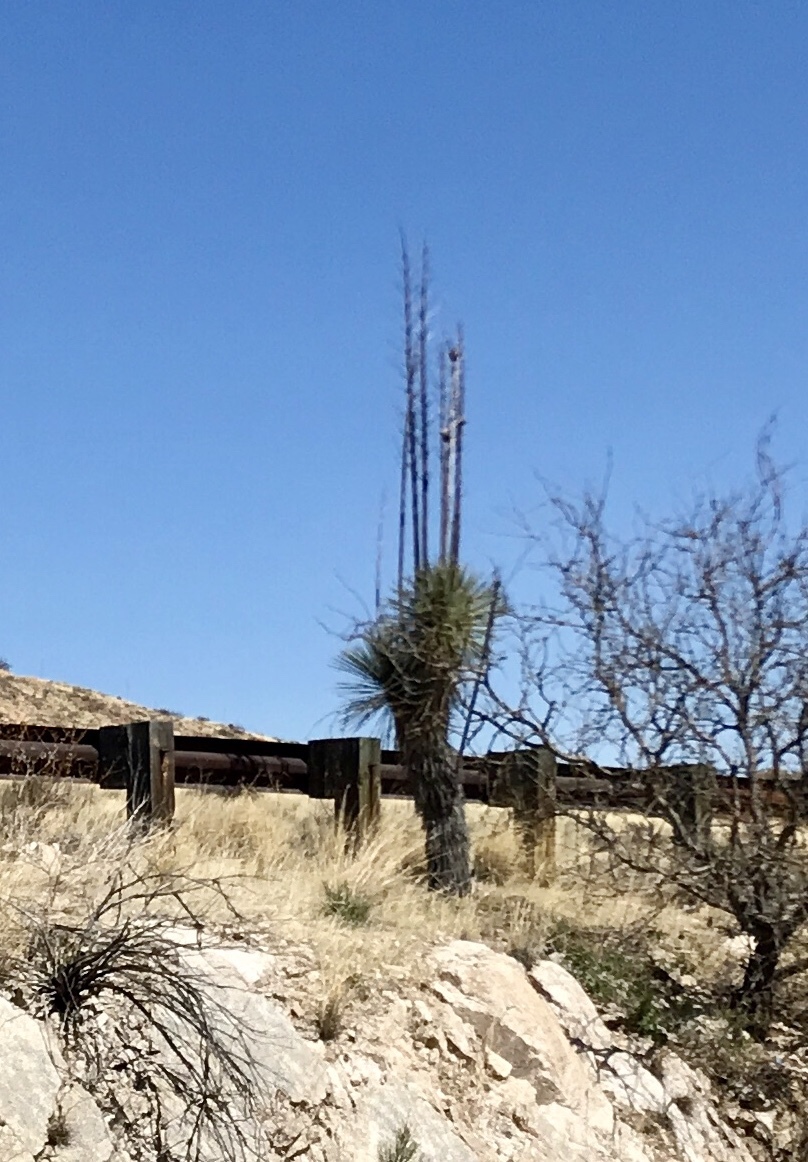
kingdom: Plantae
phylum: Tracheophyta
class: Liliopsida
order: Asparagales
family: Asparagaceae
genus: Yucca
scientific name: Yucca elata
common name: Palmella
